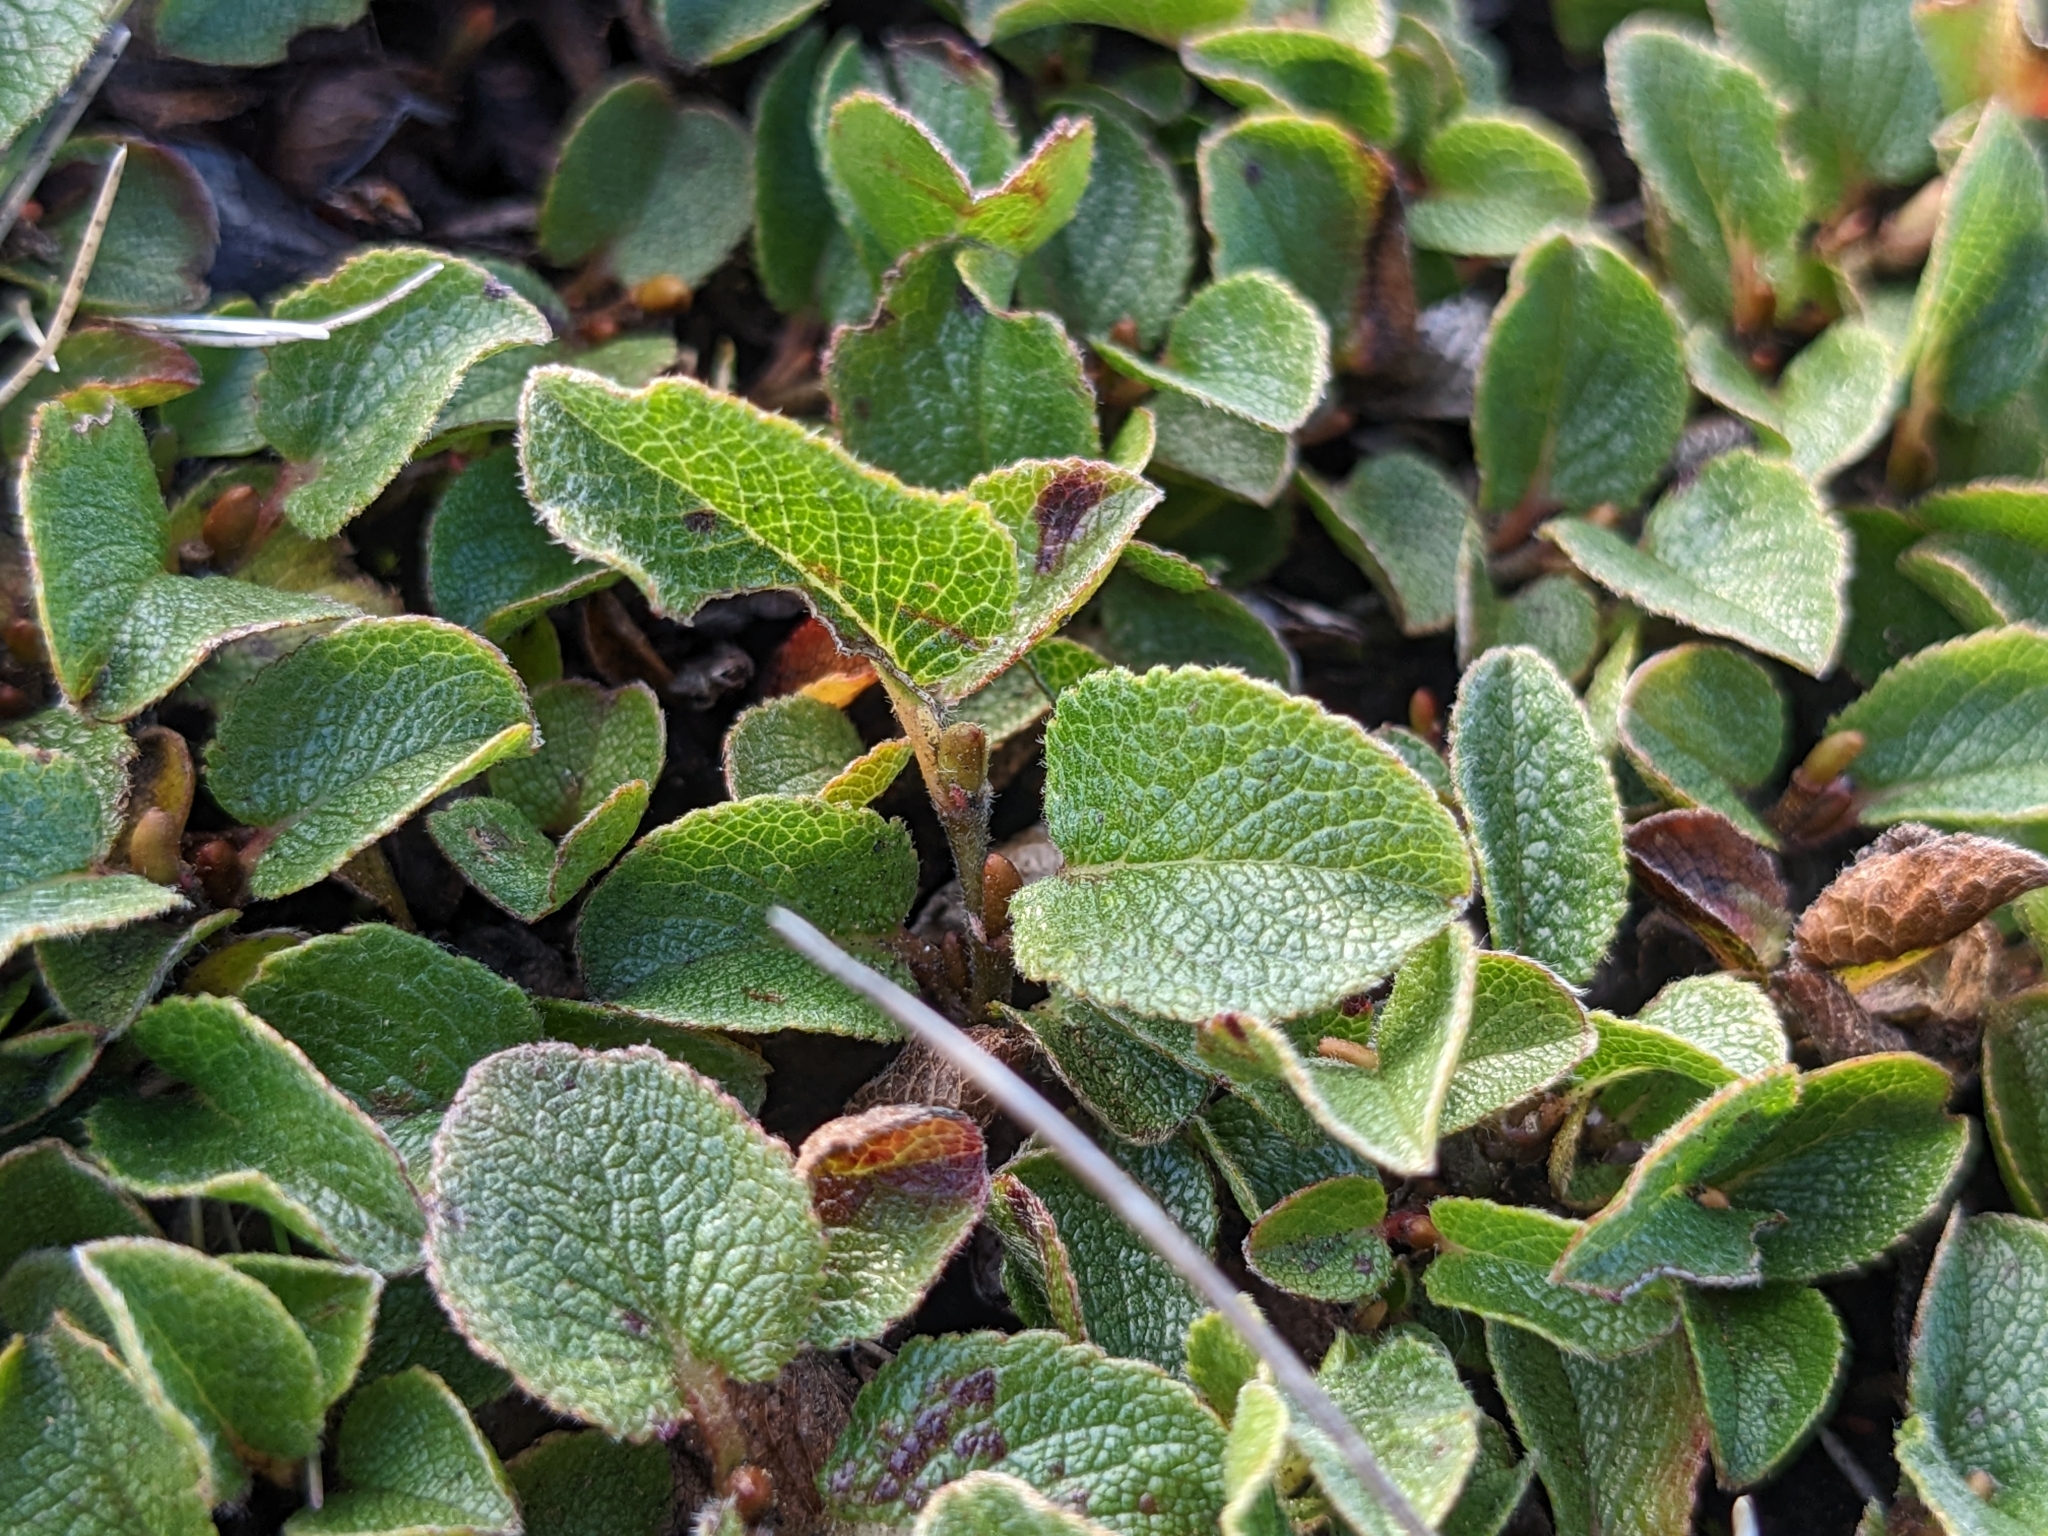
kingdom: Plantae
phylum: Tracheophyta
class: Magnoliopsida
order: Malpighiales
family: Salicaceae
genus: Salix
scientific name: Salix herbacea
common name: Dwarf willow
